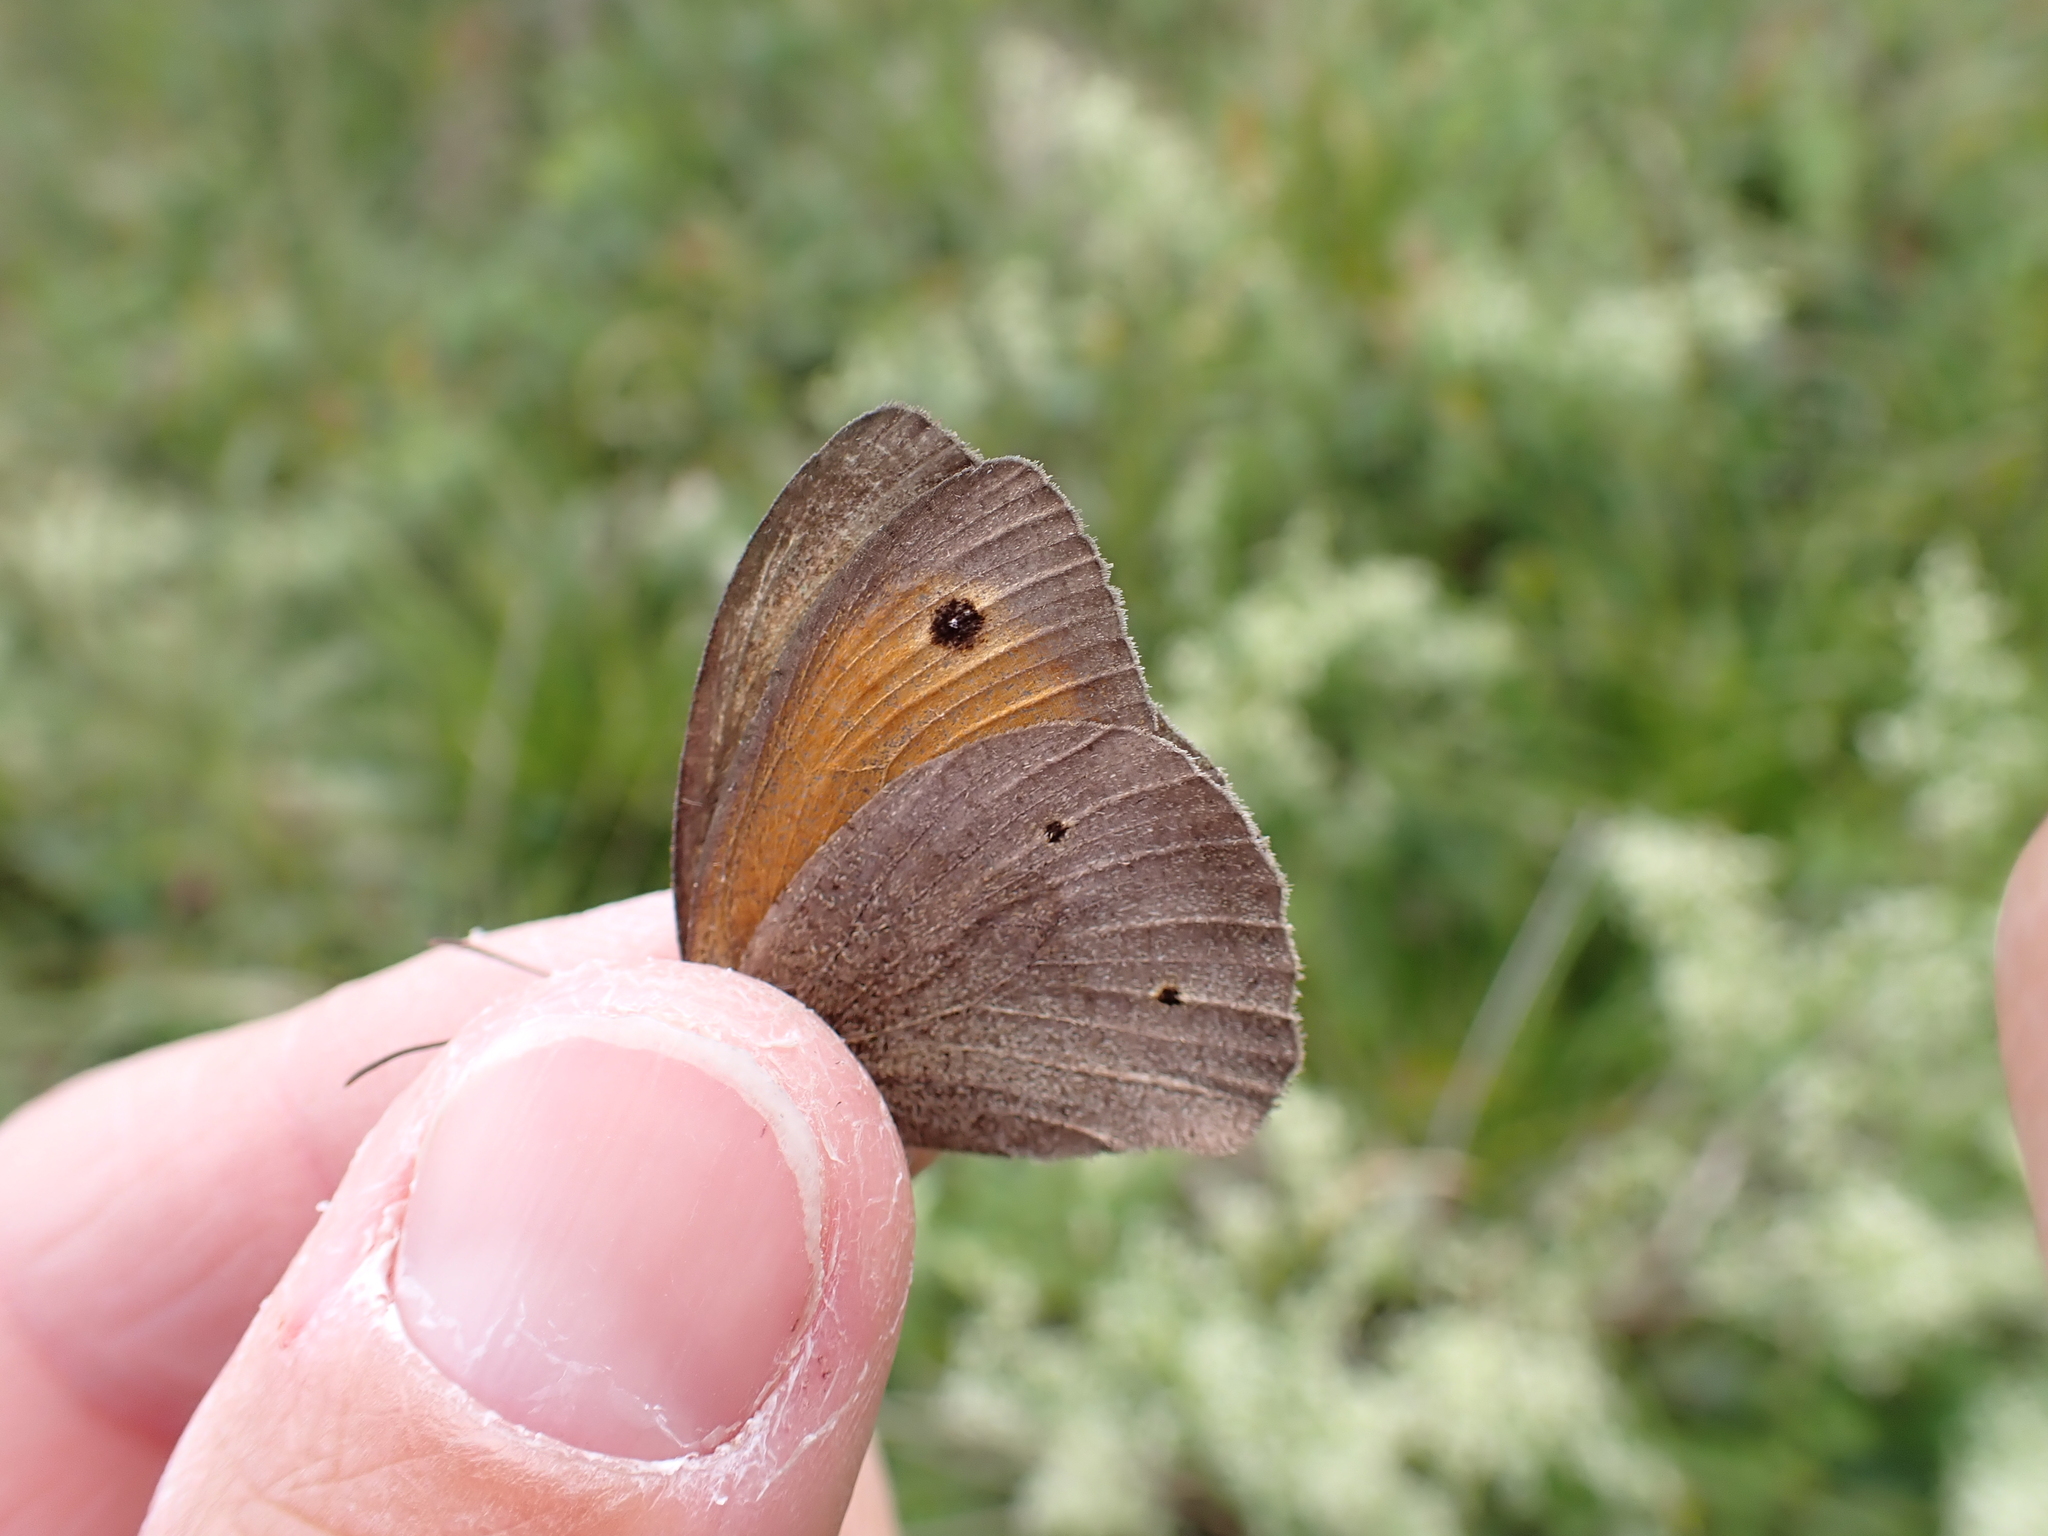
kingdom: Animalia
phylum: Arthropoda
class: Insecta
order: Lepidoptera
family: Nymphalidae
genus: Maniola
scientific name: Maniola jurtina
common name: Meadow brown
